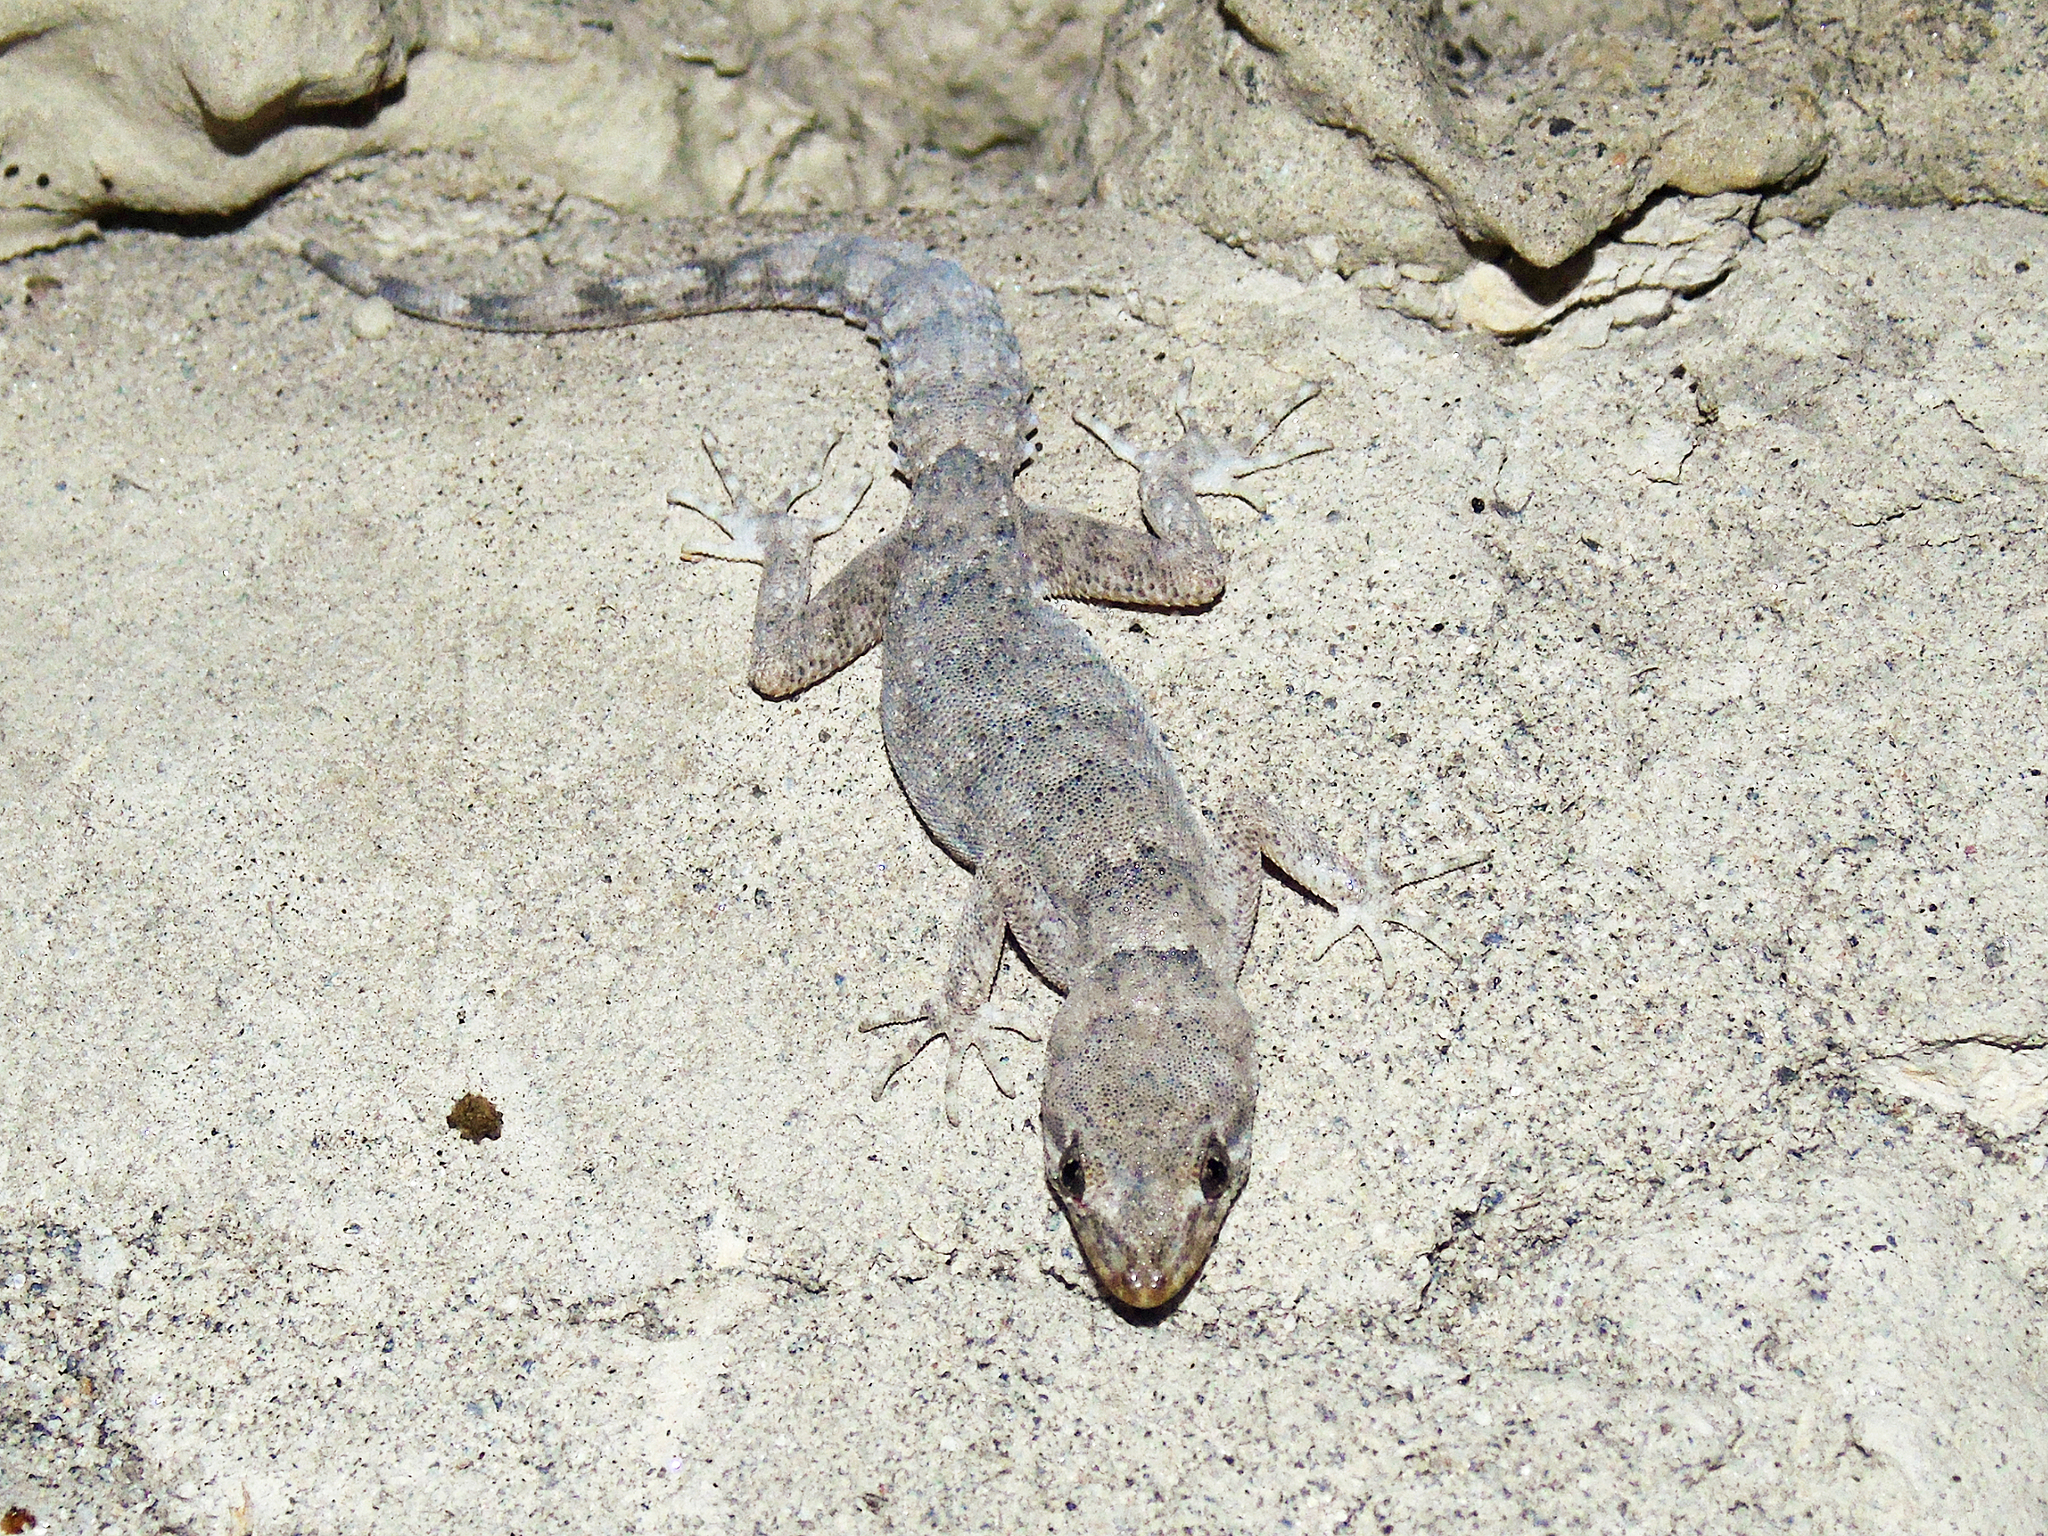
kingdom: Animalia
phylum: Chordata
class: Squamata
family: Gekkonidae
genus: Altiphylax
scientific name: Altiphylax stoliczkai
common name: Frontier bow-fingered gecko
